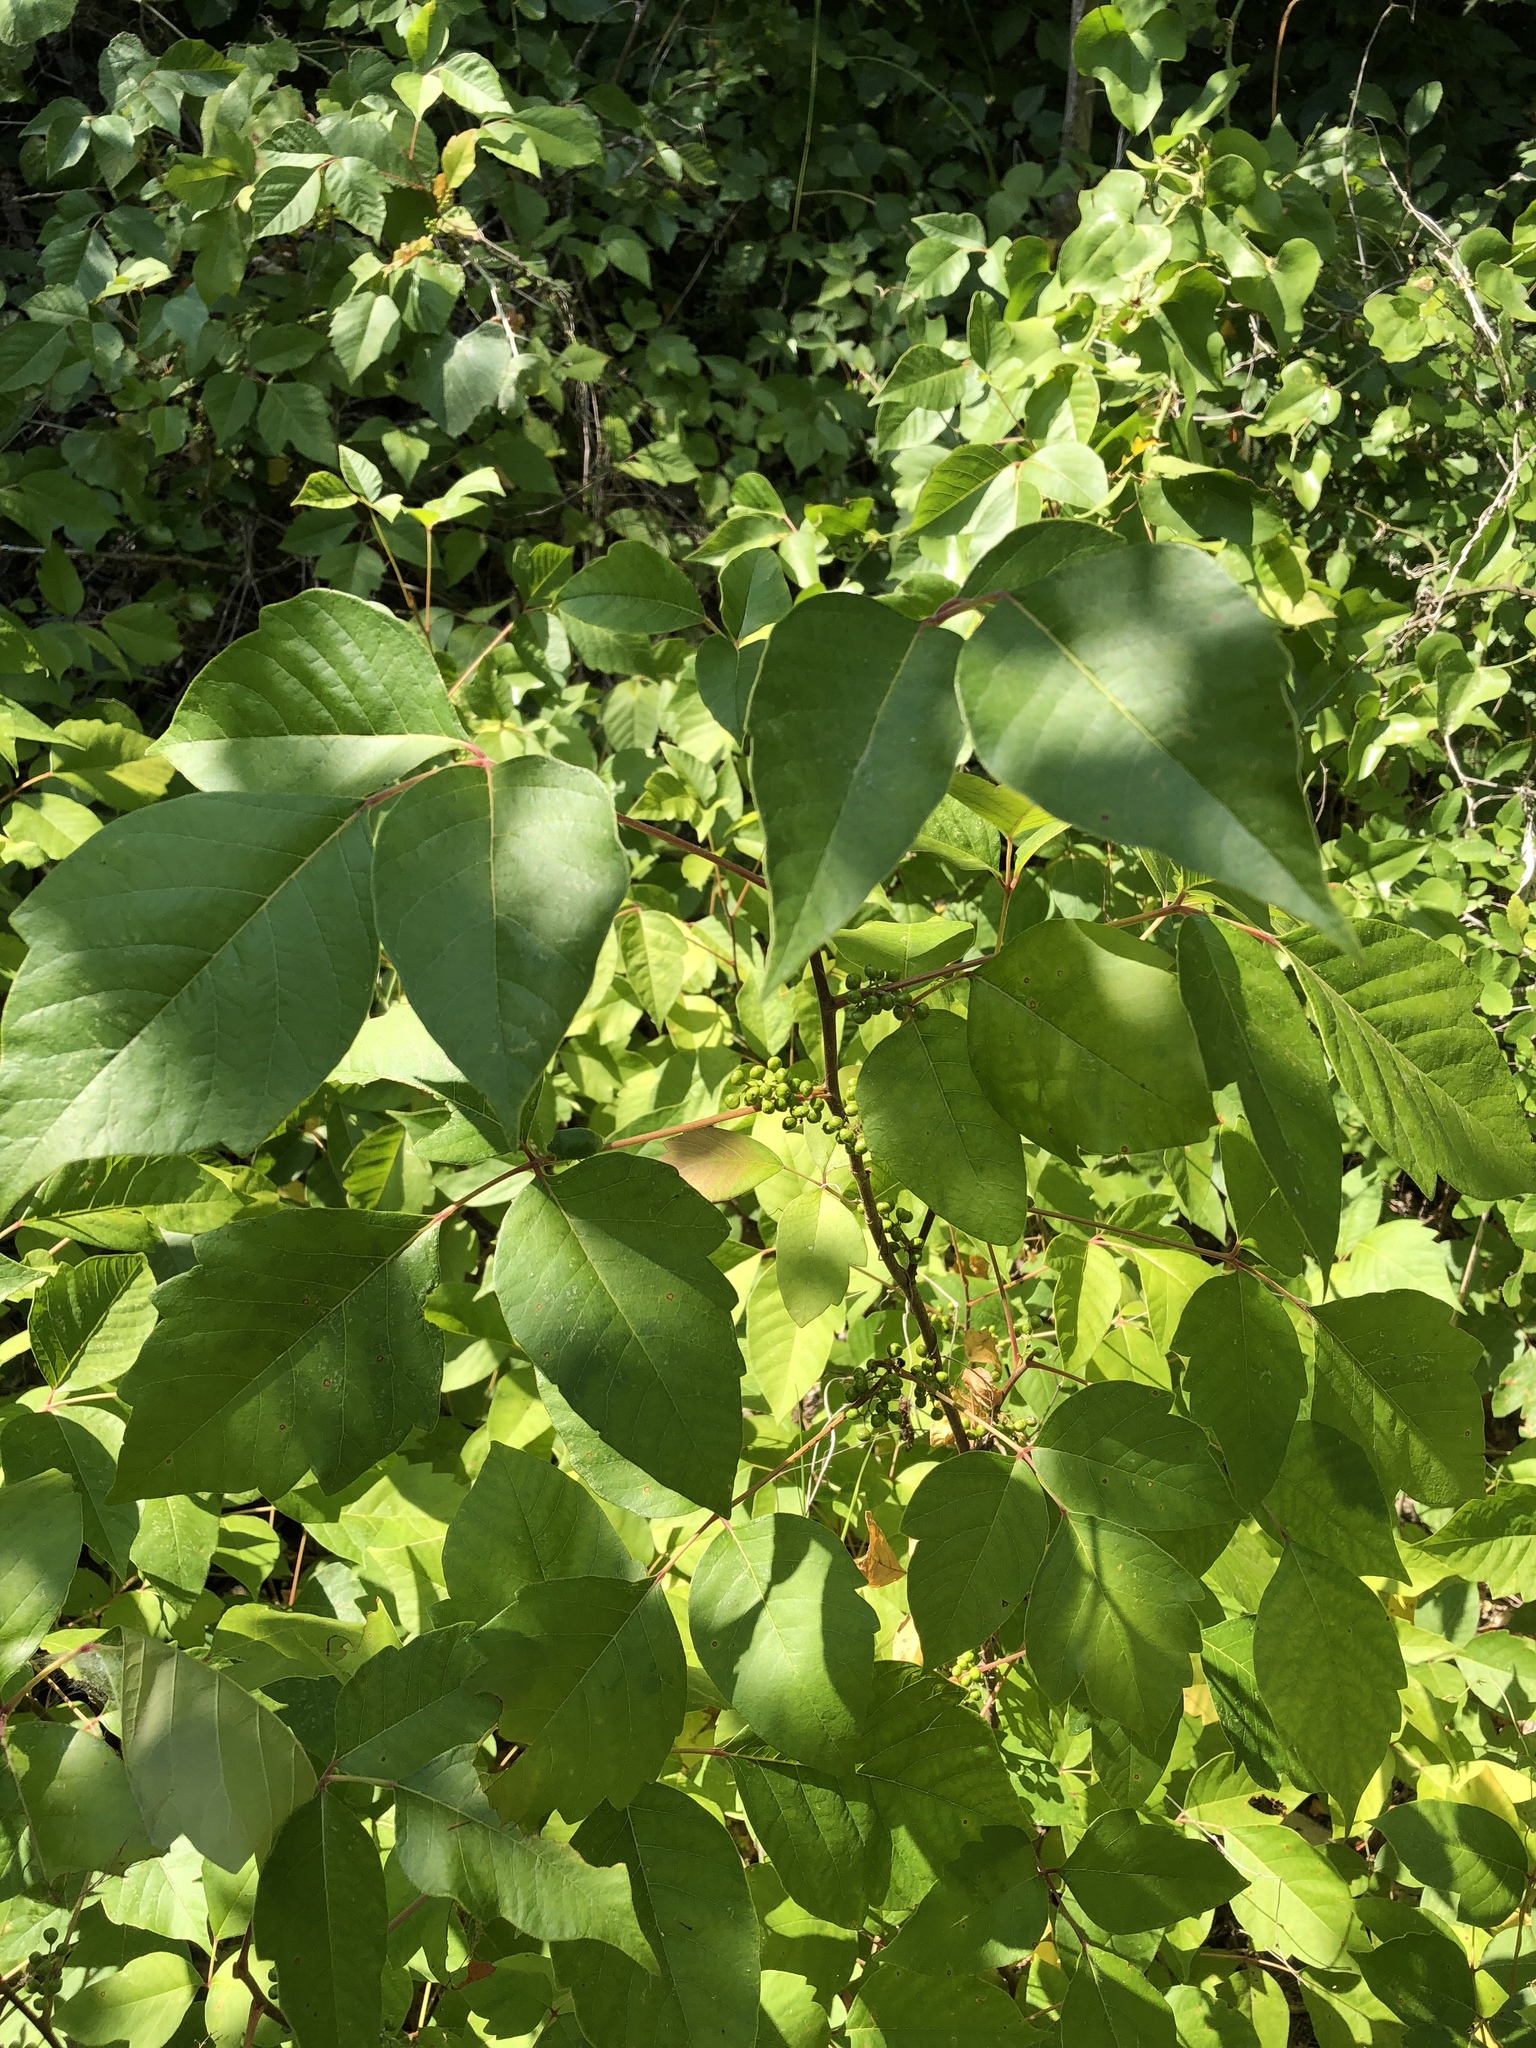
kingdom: Plantae
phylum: Tracheophyta
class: Magnoliopsida
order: Sapindales
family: Anacardiaceae
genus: Toxicodendron
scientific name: Toxicodendron radicans
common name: Poison ivy
